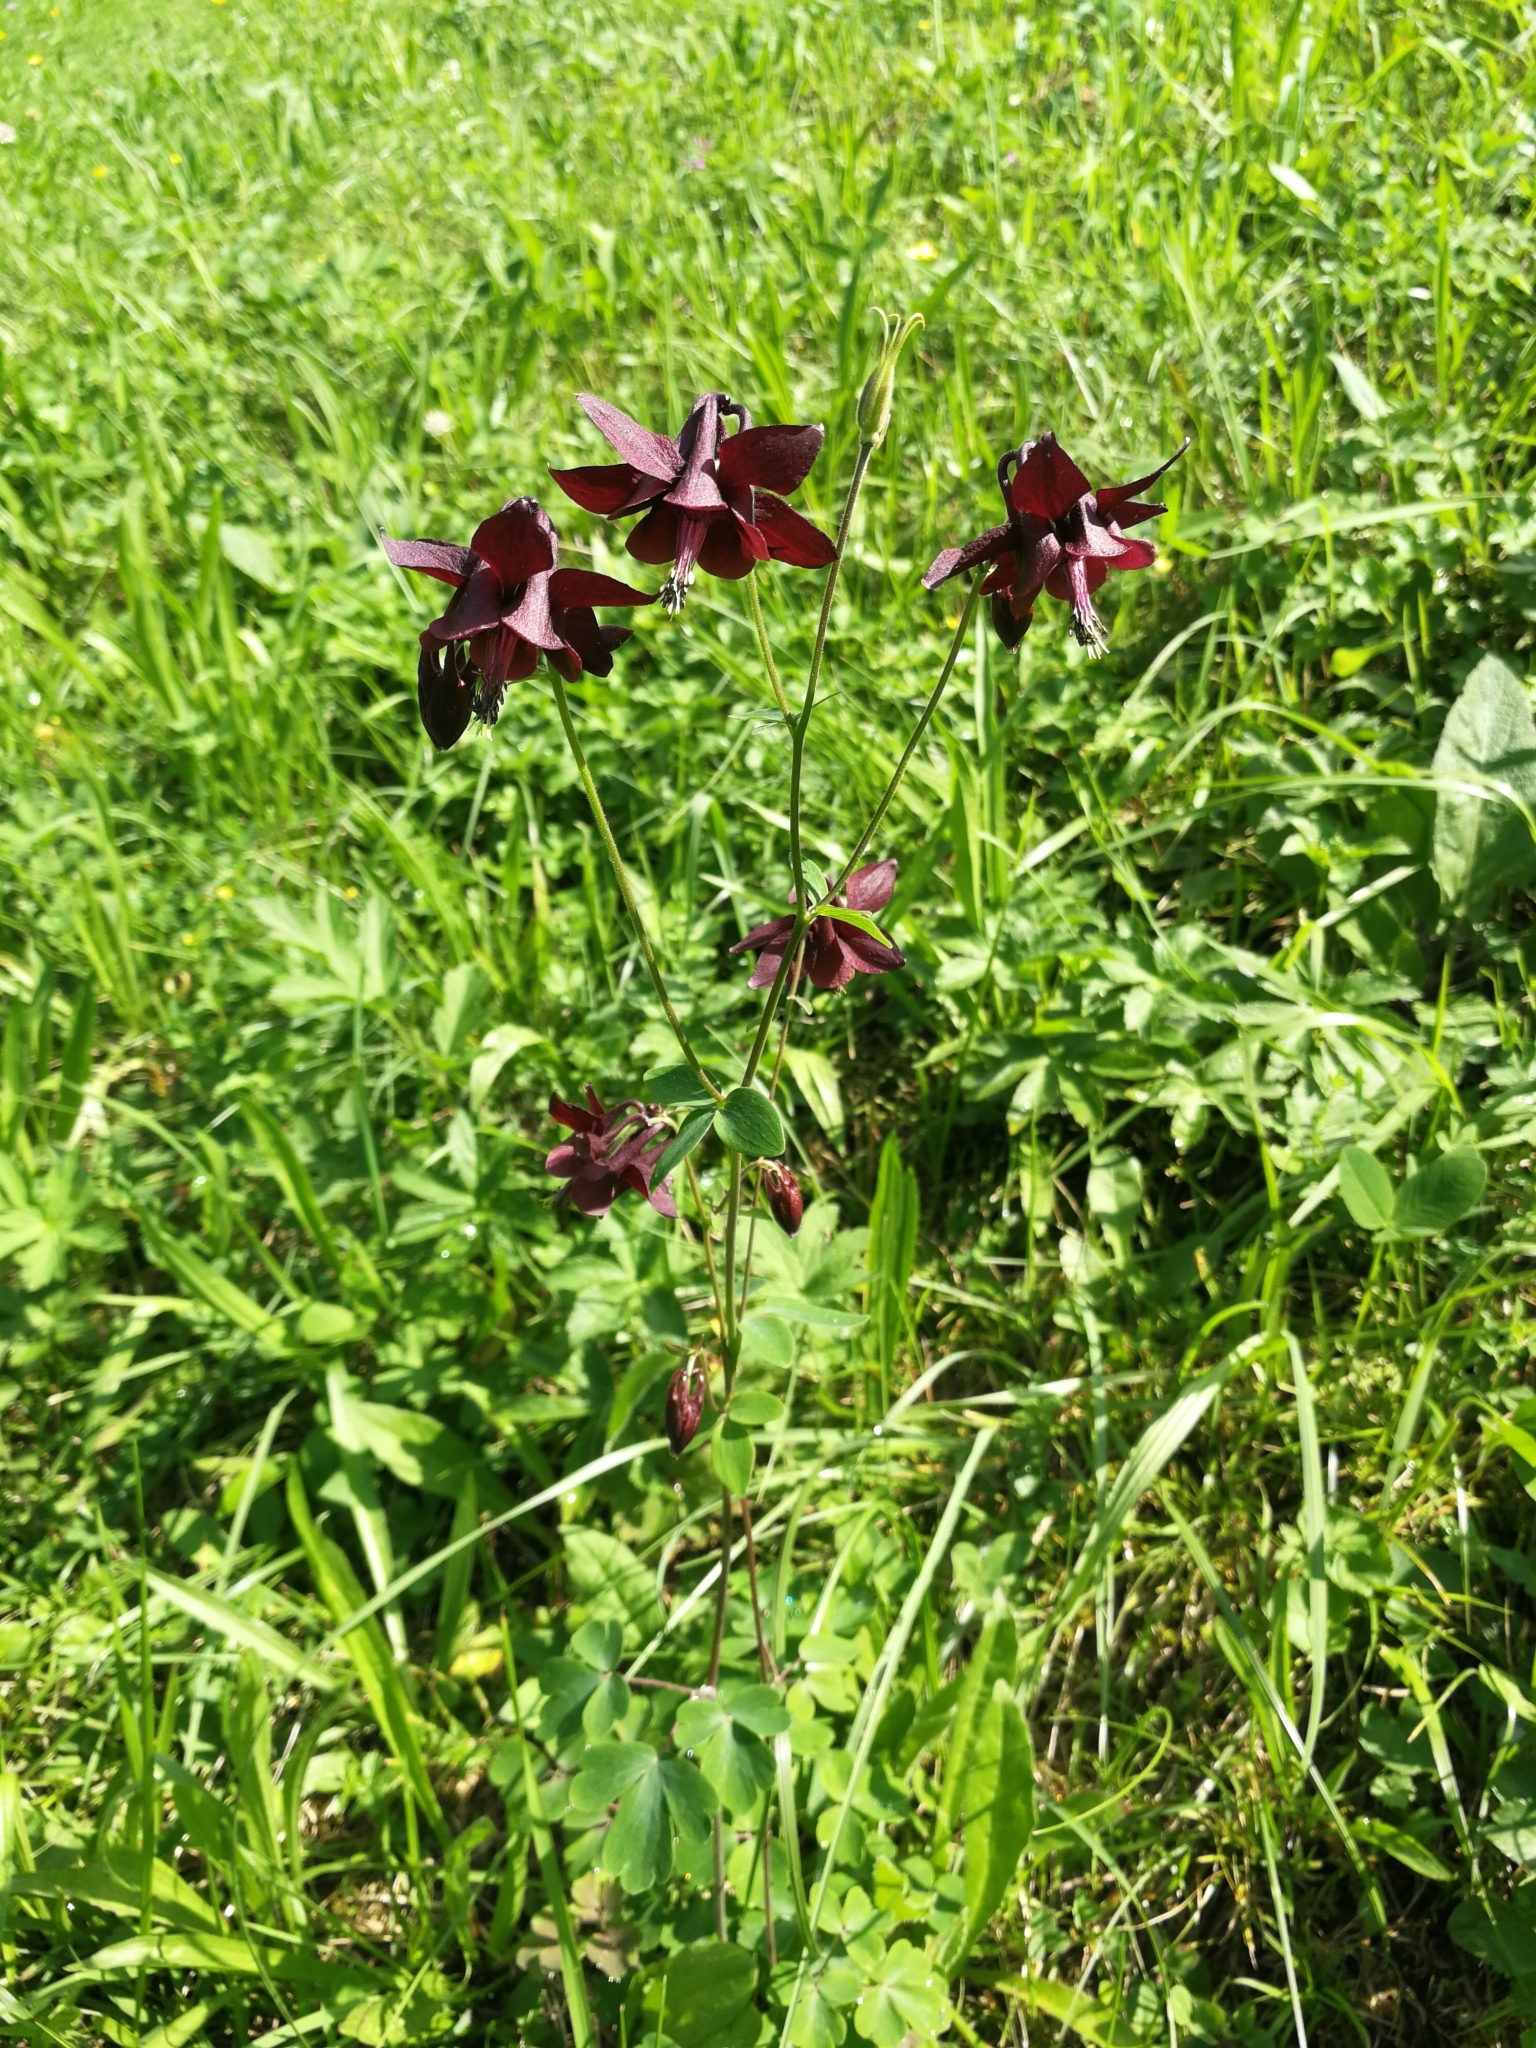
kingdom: Plantae
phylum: Tracheophyta
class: Magnoliopsida
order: Ranunculales
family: Ranunculaceae
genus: Aquilegia
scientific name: Aquilegia atrata
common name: Dark columbine
